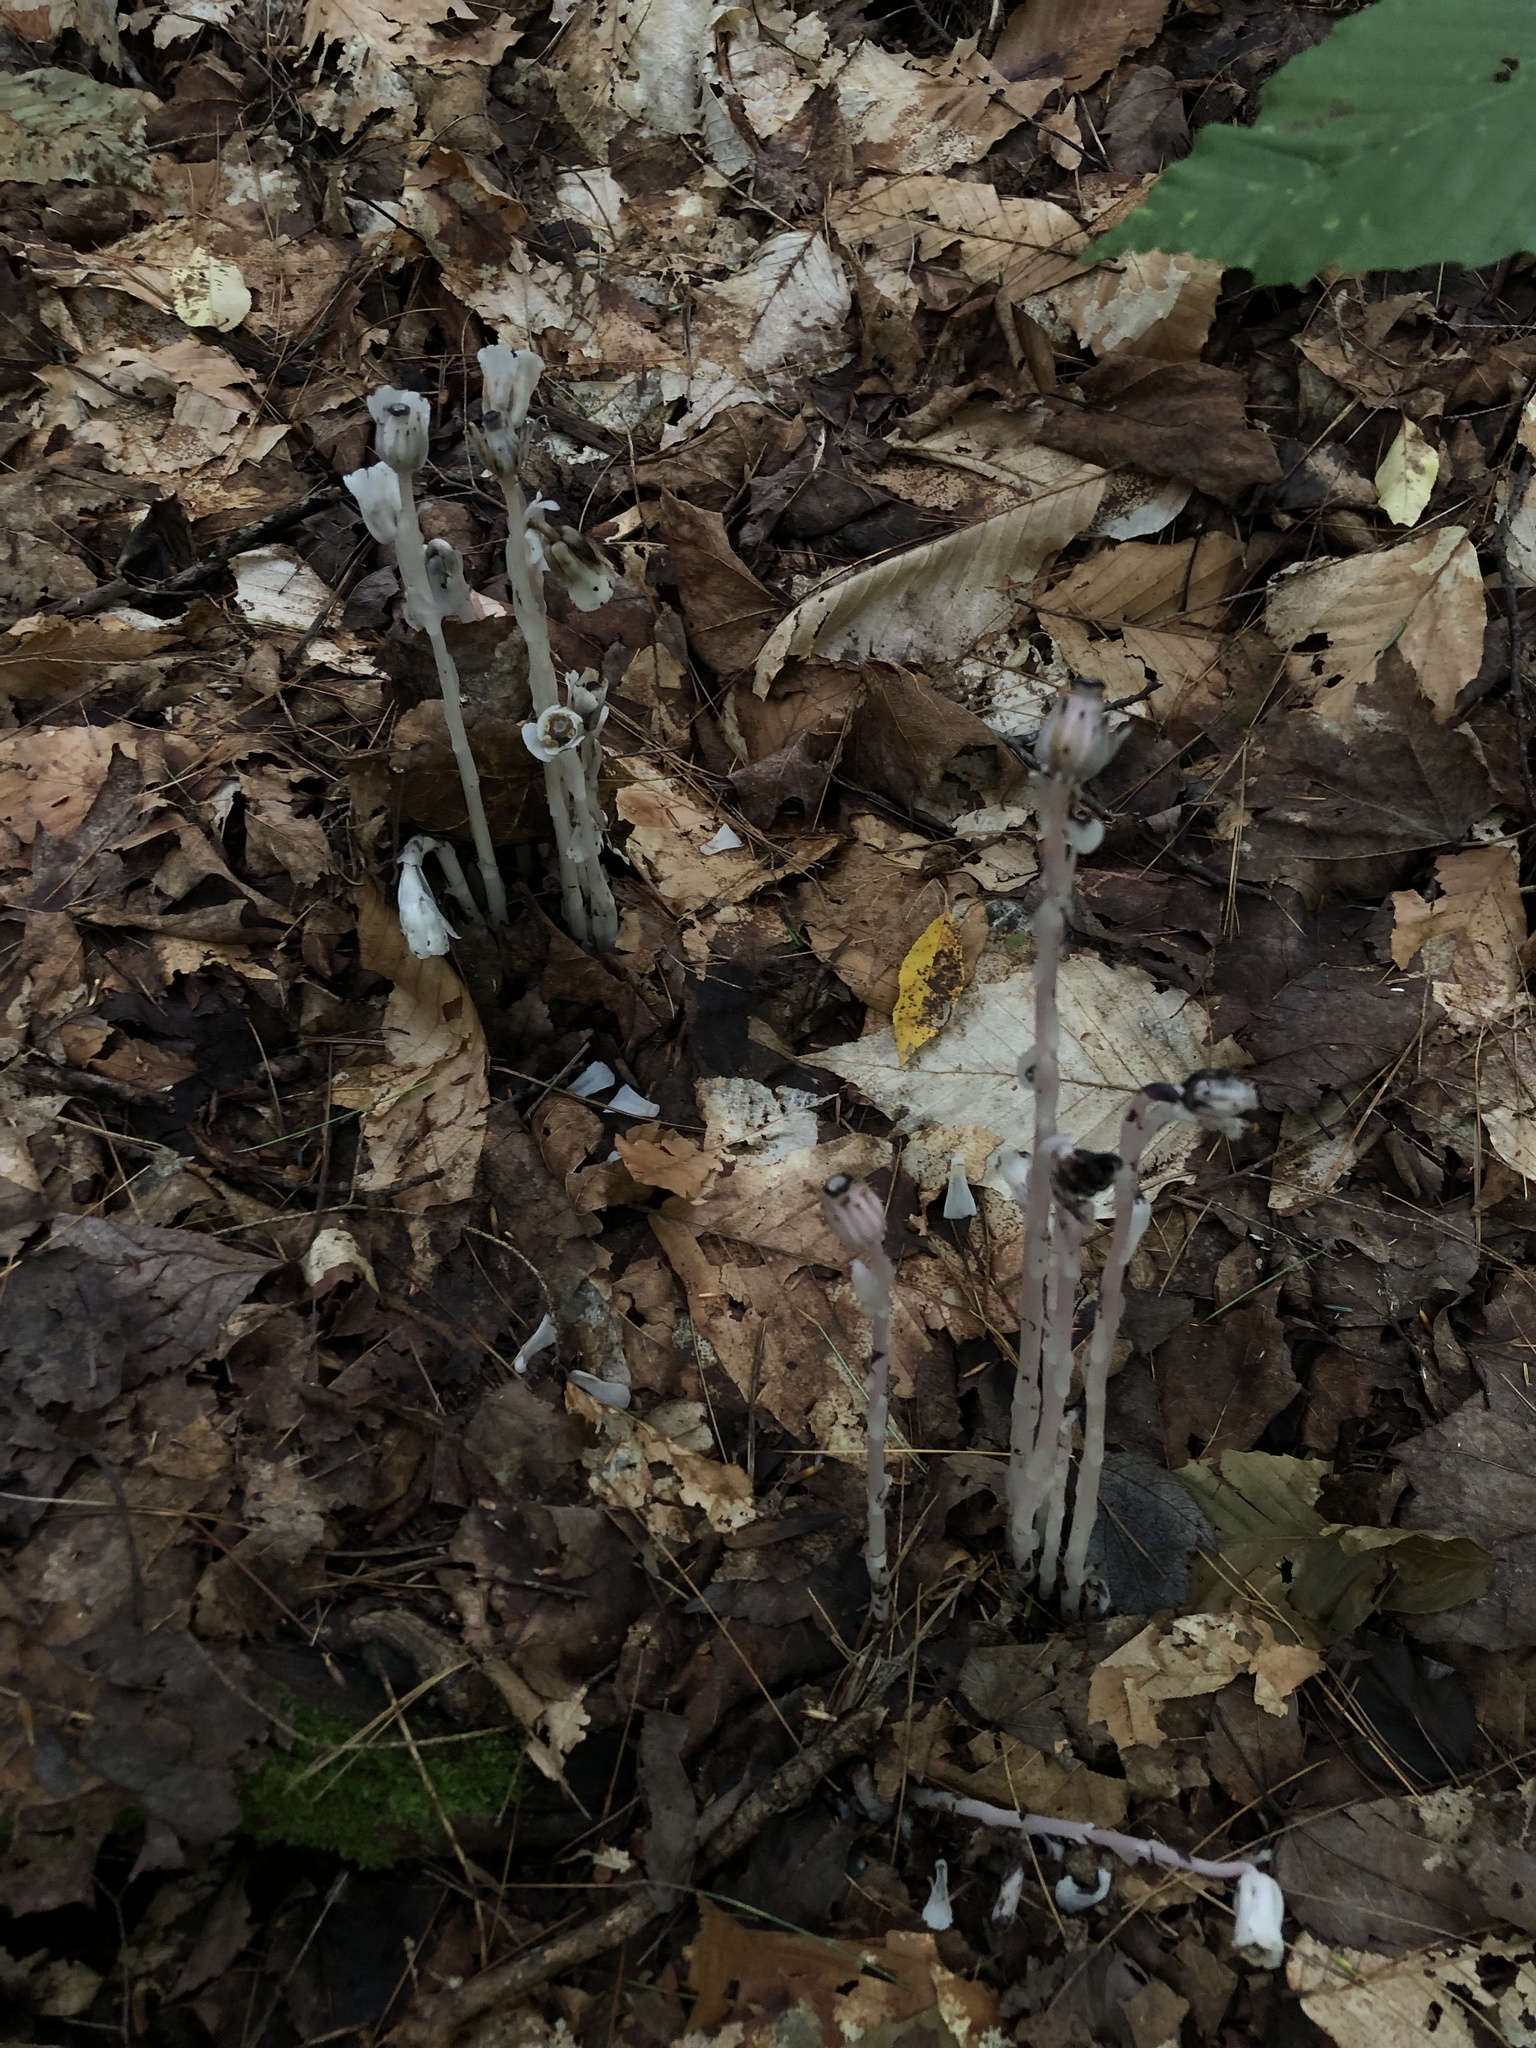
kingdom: Plantae
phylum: Tracheophyta
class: Magnoliopsida
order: Ericales
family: Ericaceae
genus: Monotropa
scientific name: Monotropa uniflora
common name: Convulsion root
